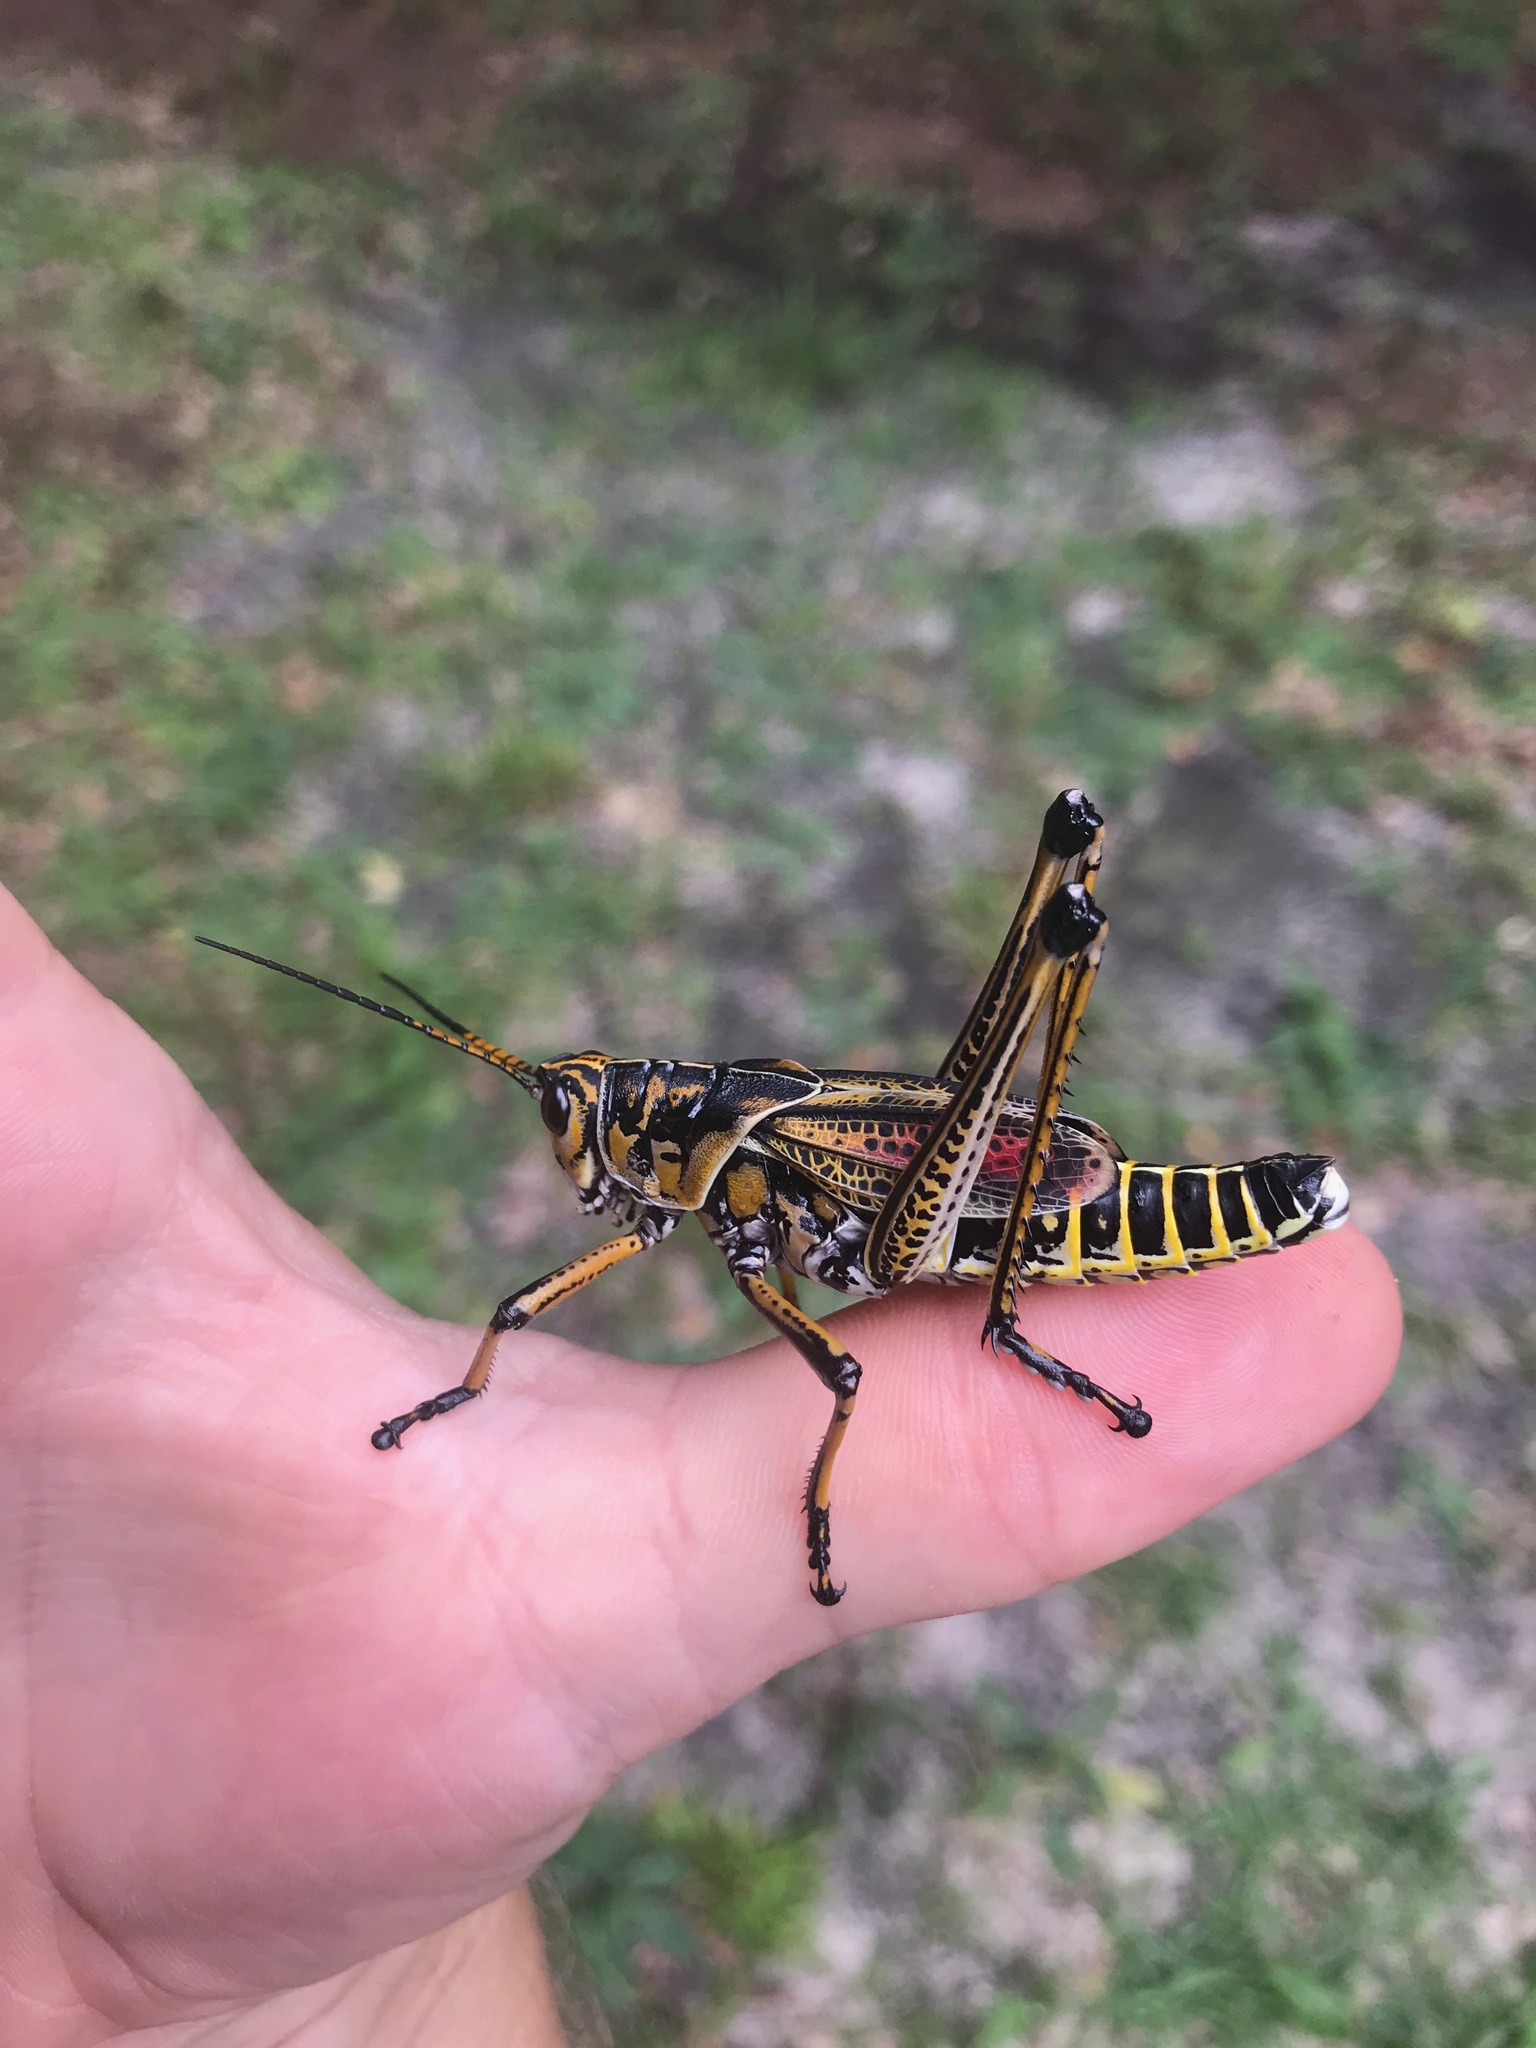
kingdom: Animalia
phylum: Arthropoda
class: Insecta
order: Orthoptera
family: Romaleidae
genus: Romalea
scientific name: Romalea microptera
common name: Eastern lubber grasshopper
